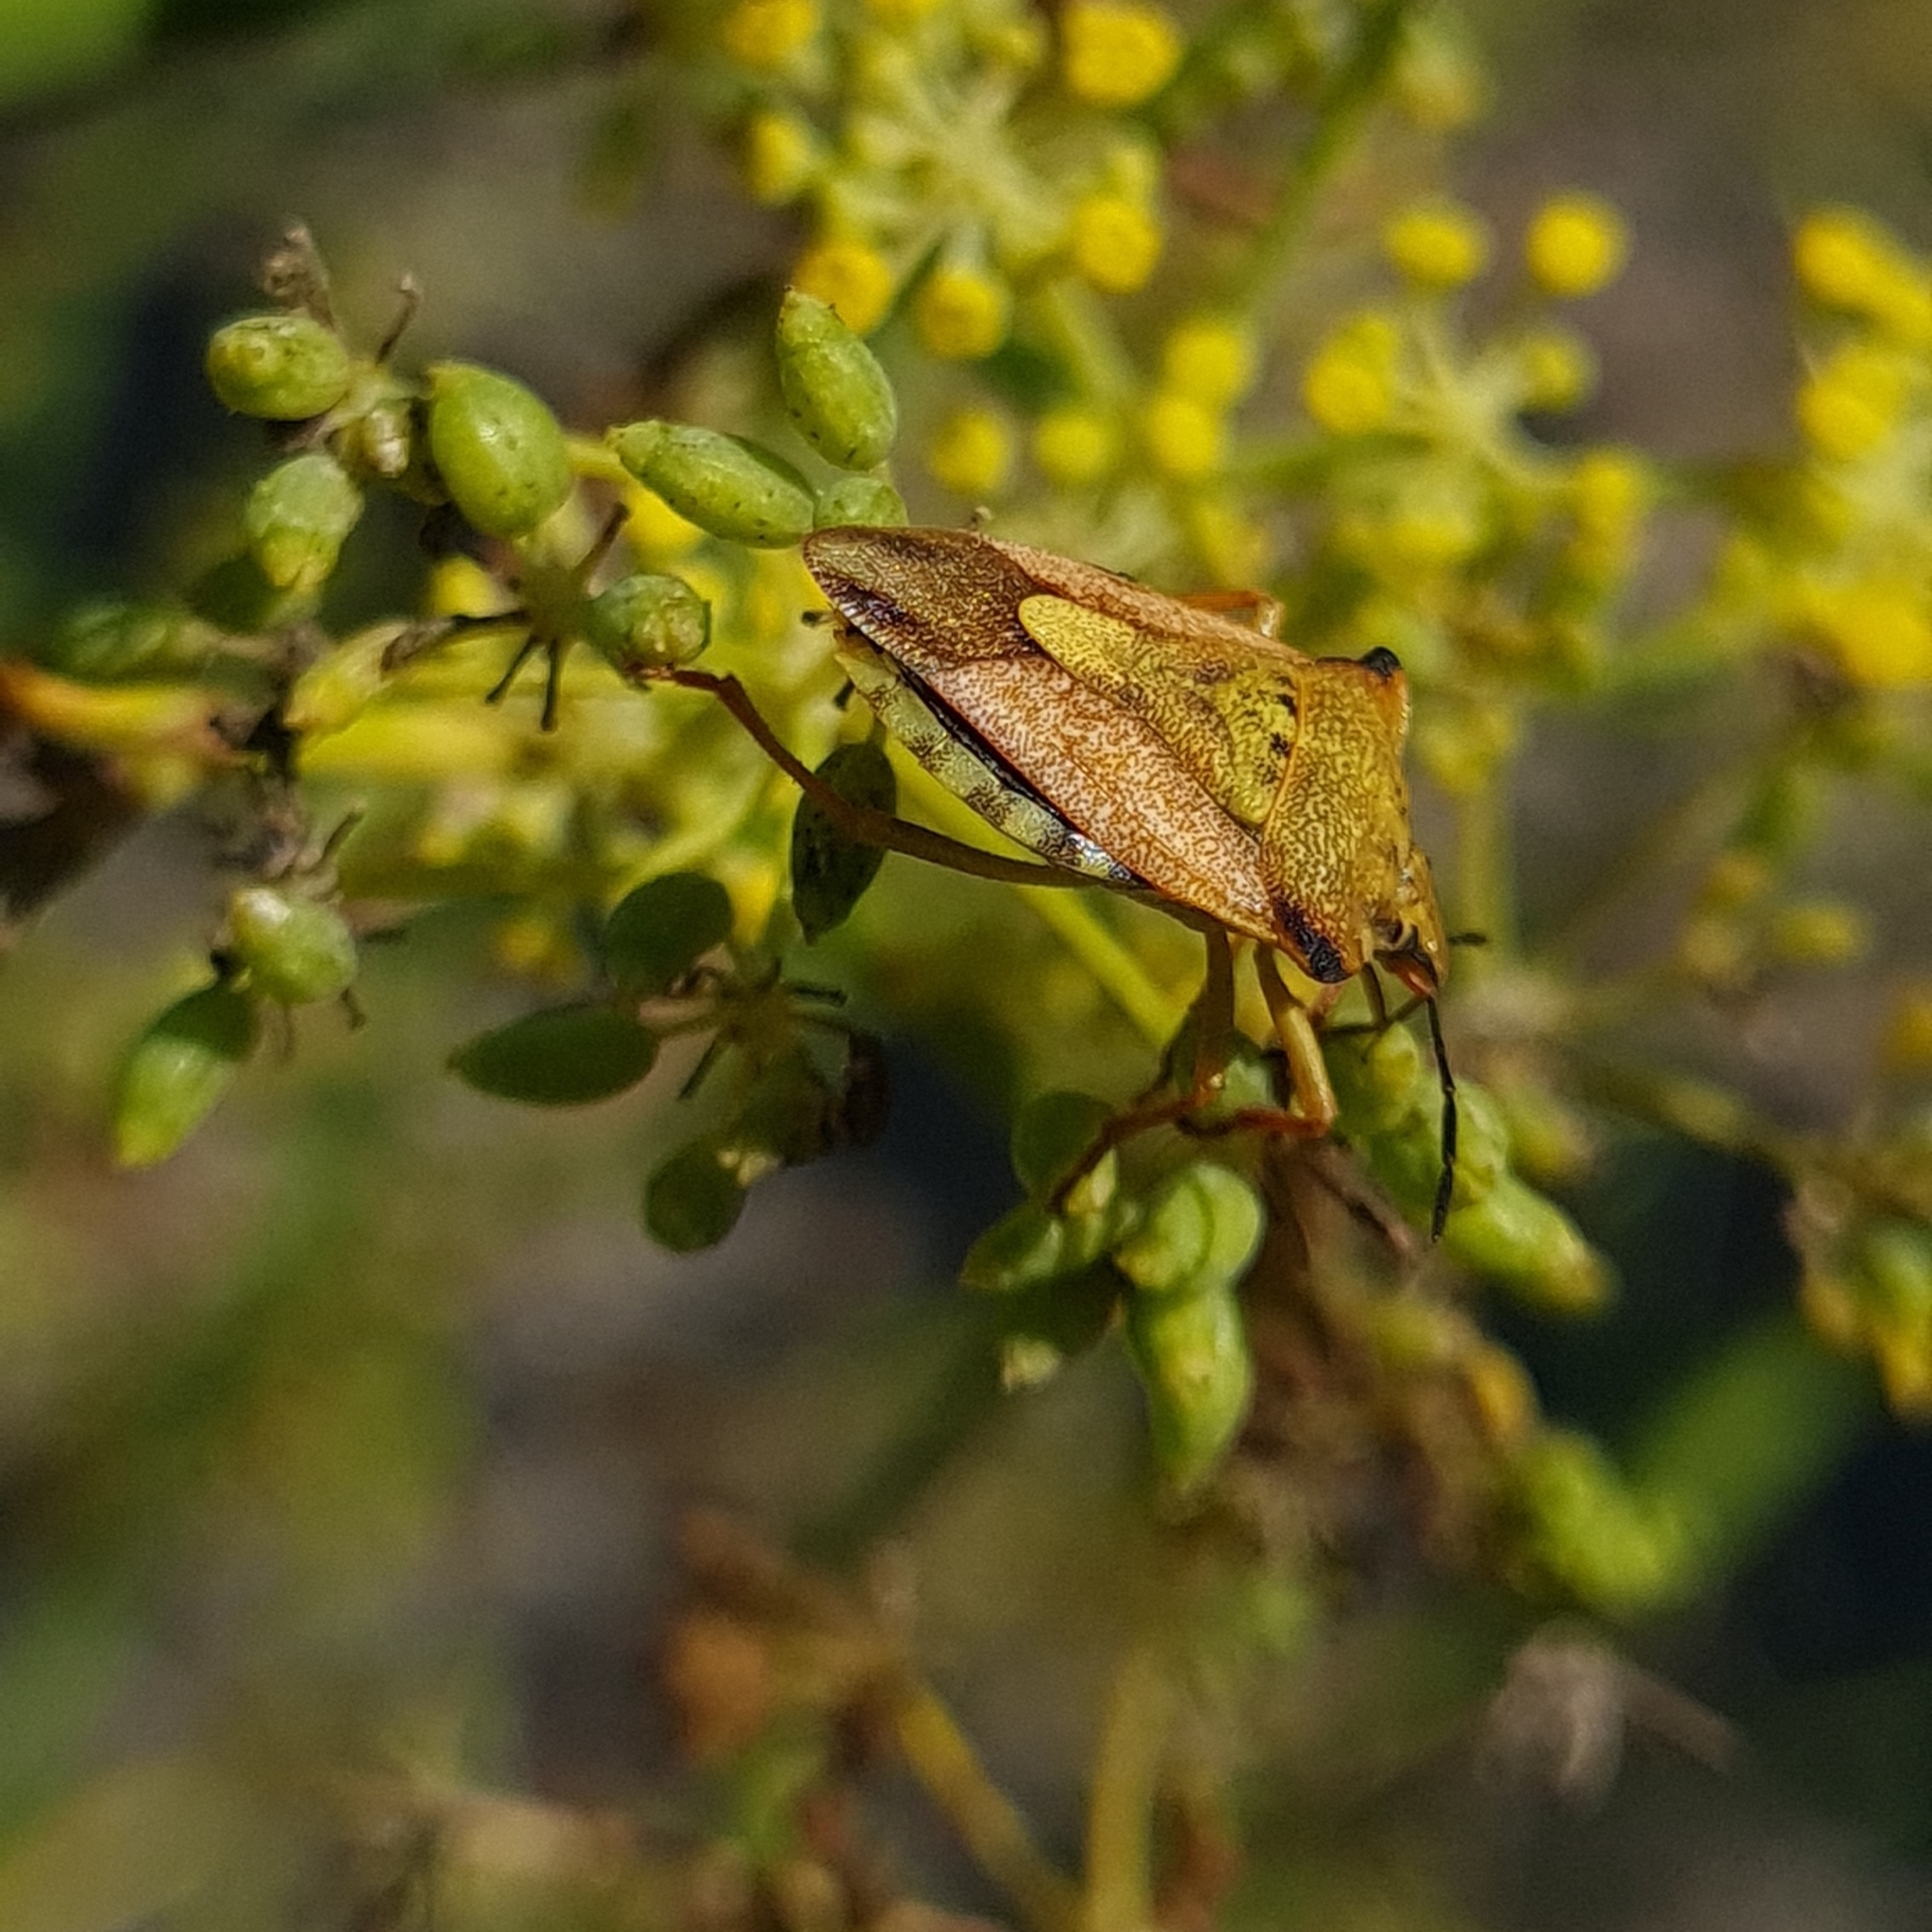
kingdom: Animalia
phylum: Arthropoda
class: Insecta
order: Hemiptera
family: Pentatomidae
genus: Carpocoris
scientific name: Carpocoris mediterraneus
